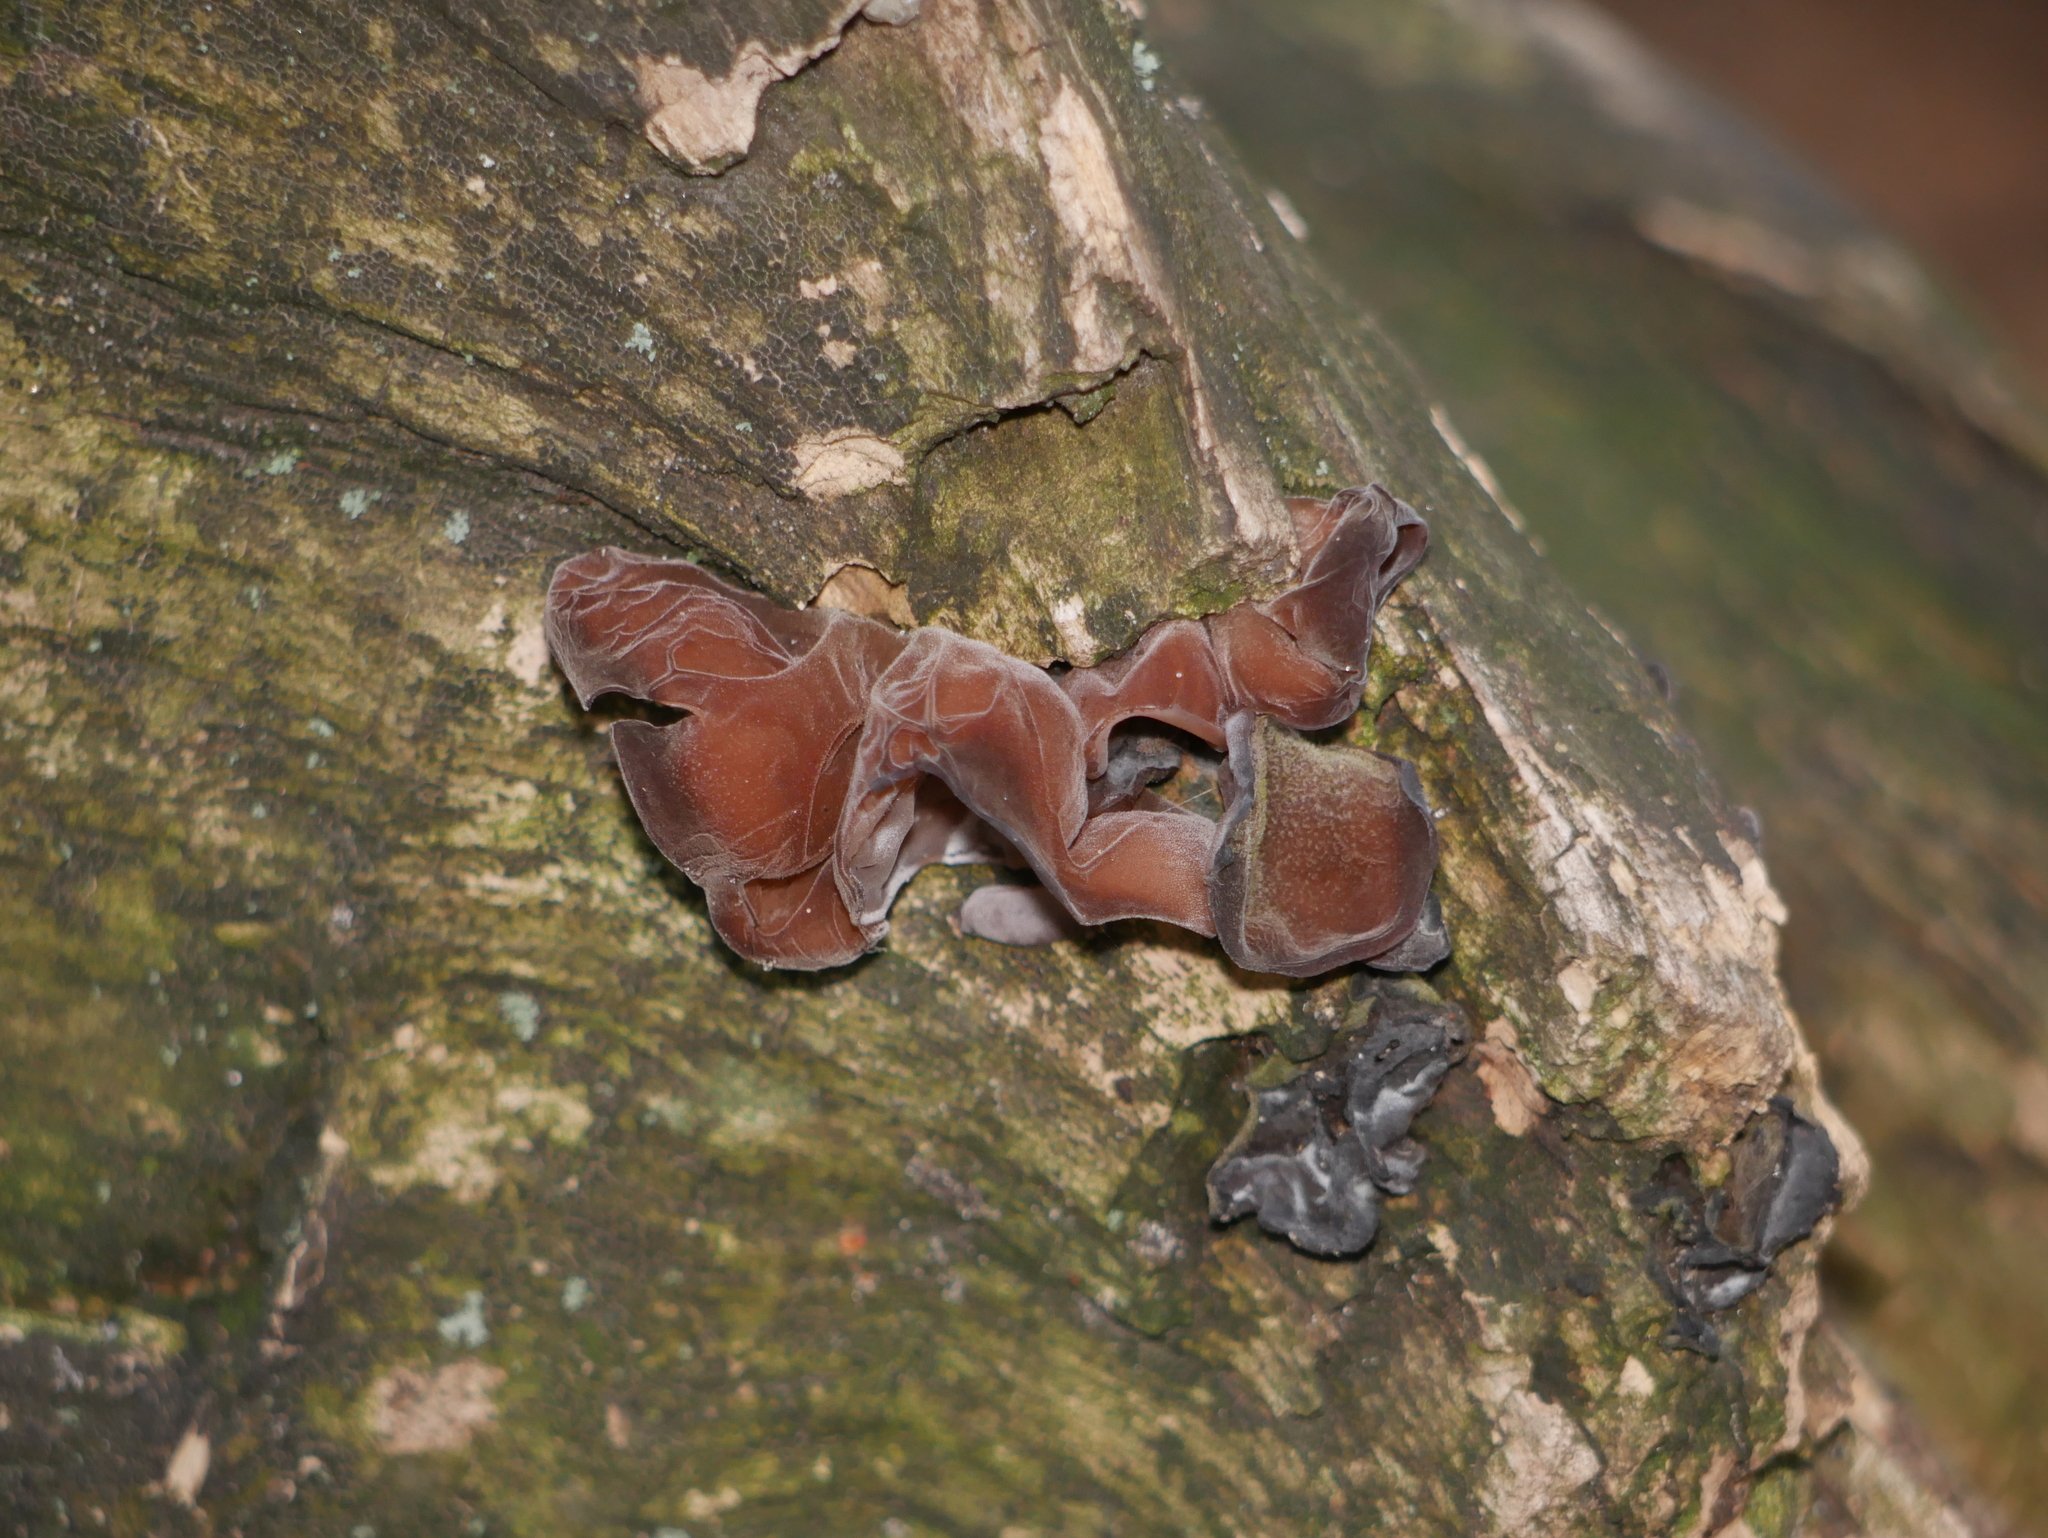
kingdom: Fungi
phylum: Basidiomycota
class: Agaricomycetes
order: Auriculariales
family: Auriculariaceae
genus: Auricularia
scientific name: Auricularia auricula-judae
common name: Jelly ear
